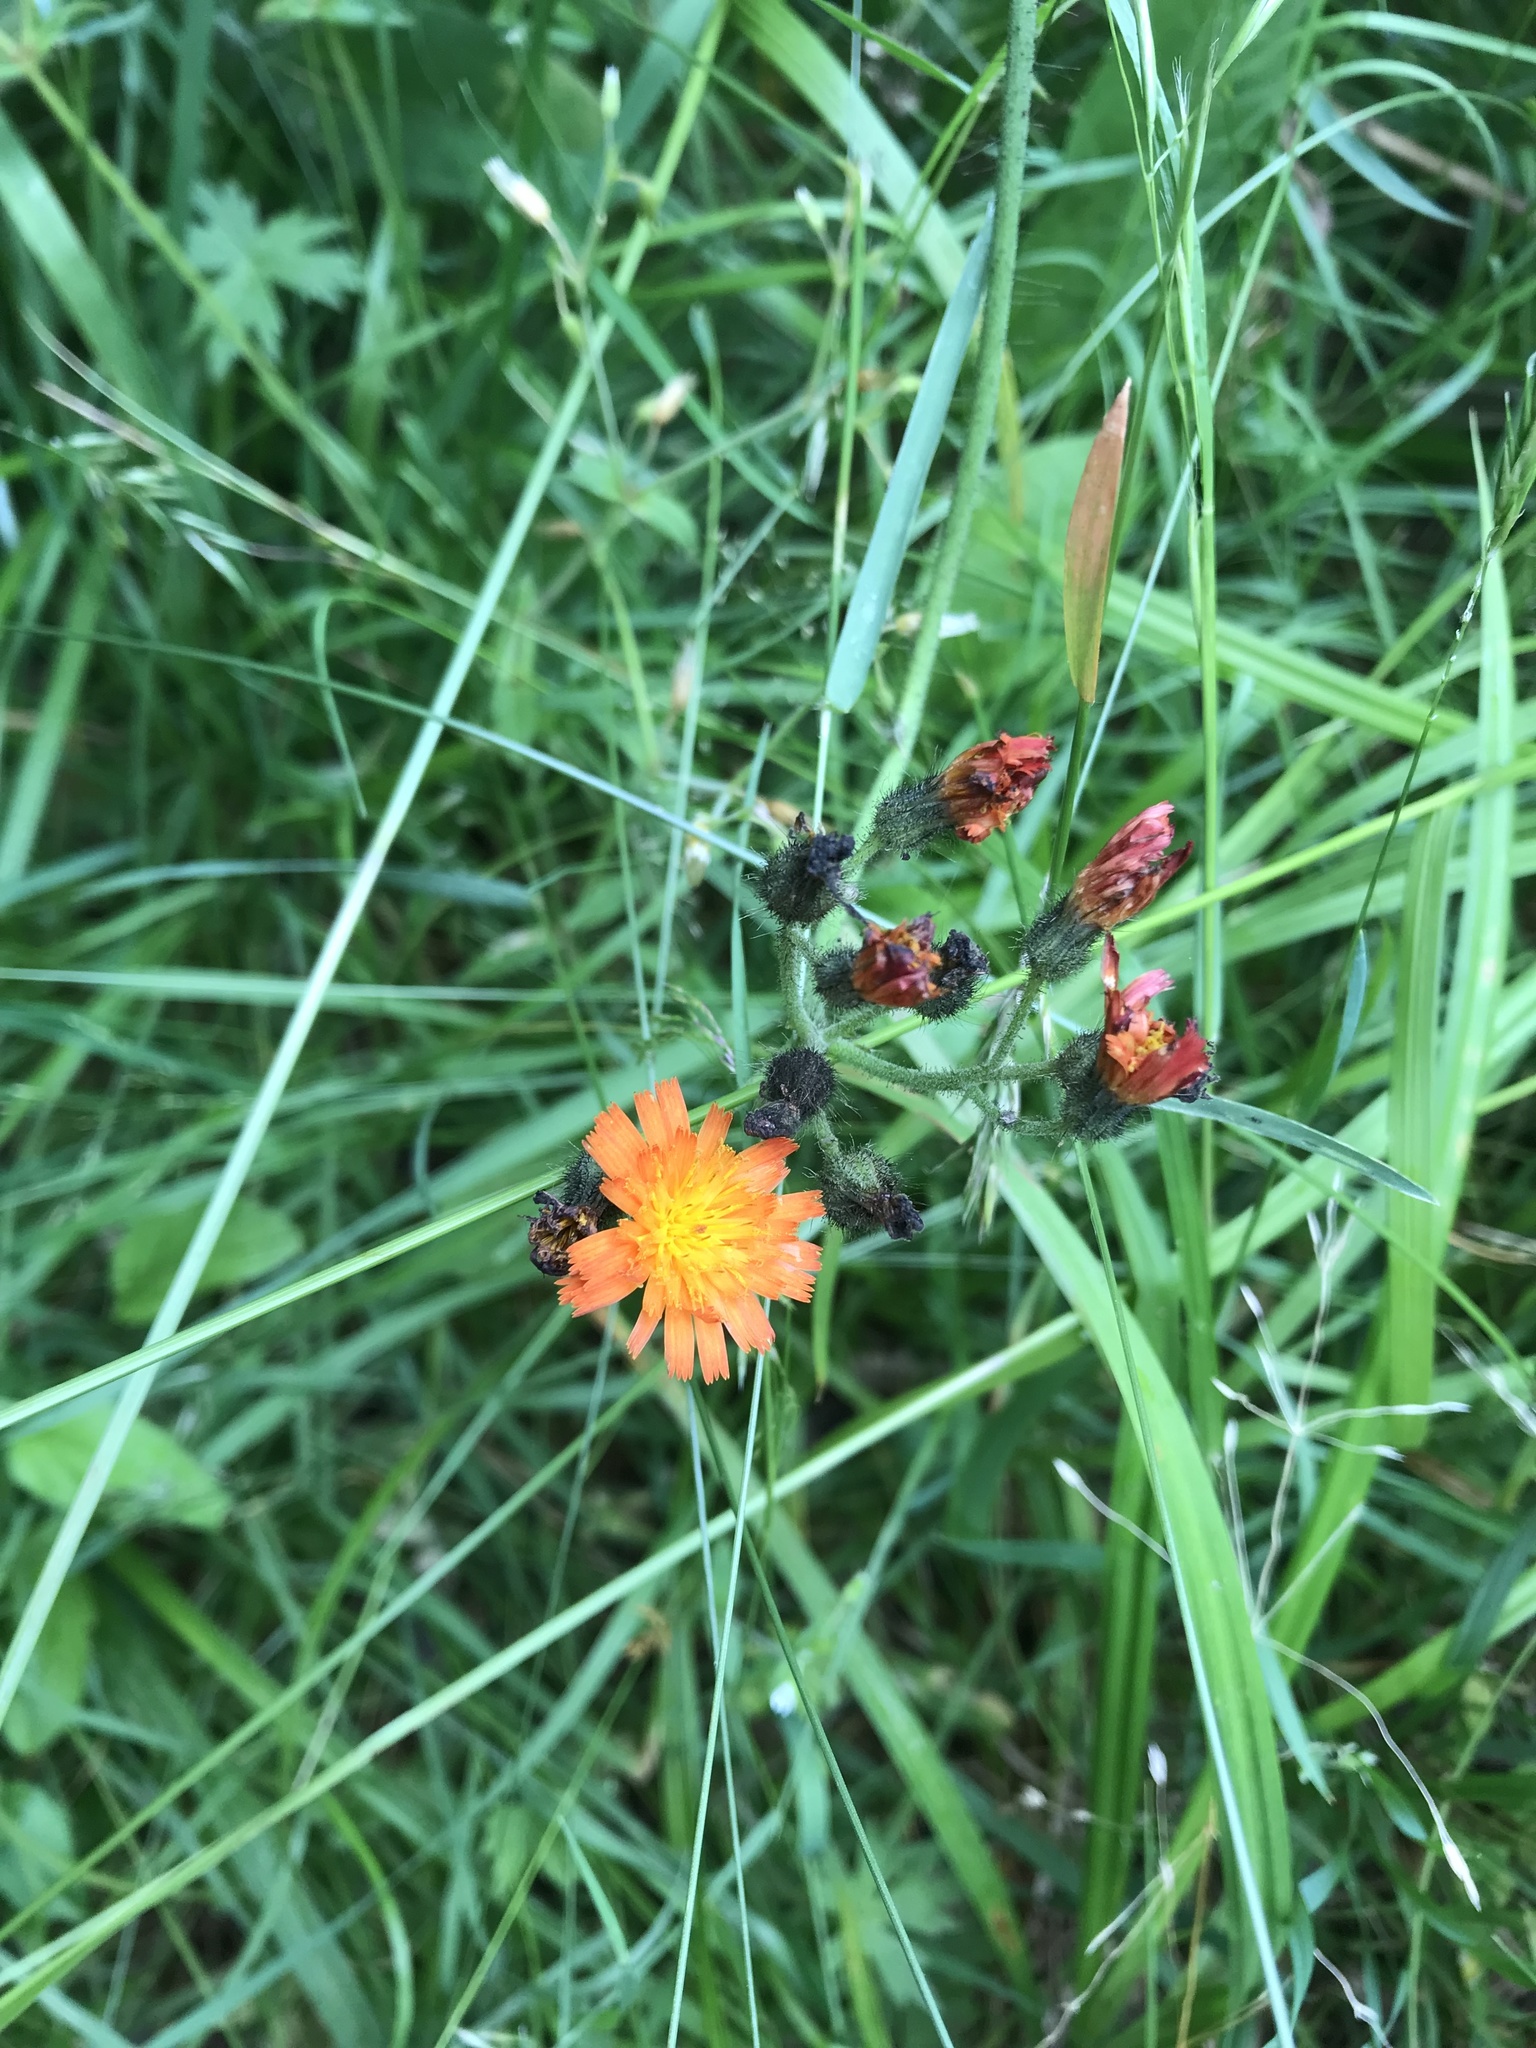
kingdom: Plantae
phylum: Tracheophyta
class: Magnoliopsida
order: Asterales
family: Asteraceae
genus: Pilosella
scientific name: Pilosella aurantiaca
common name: Fox-and-cubs
